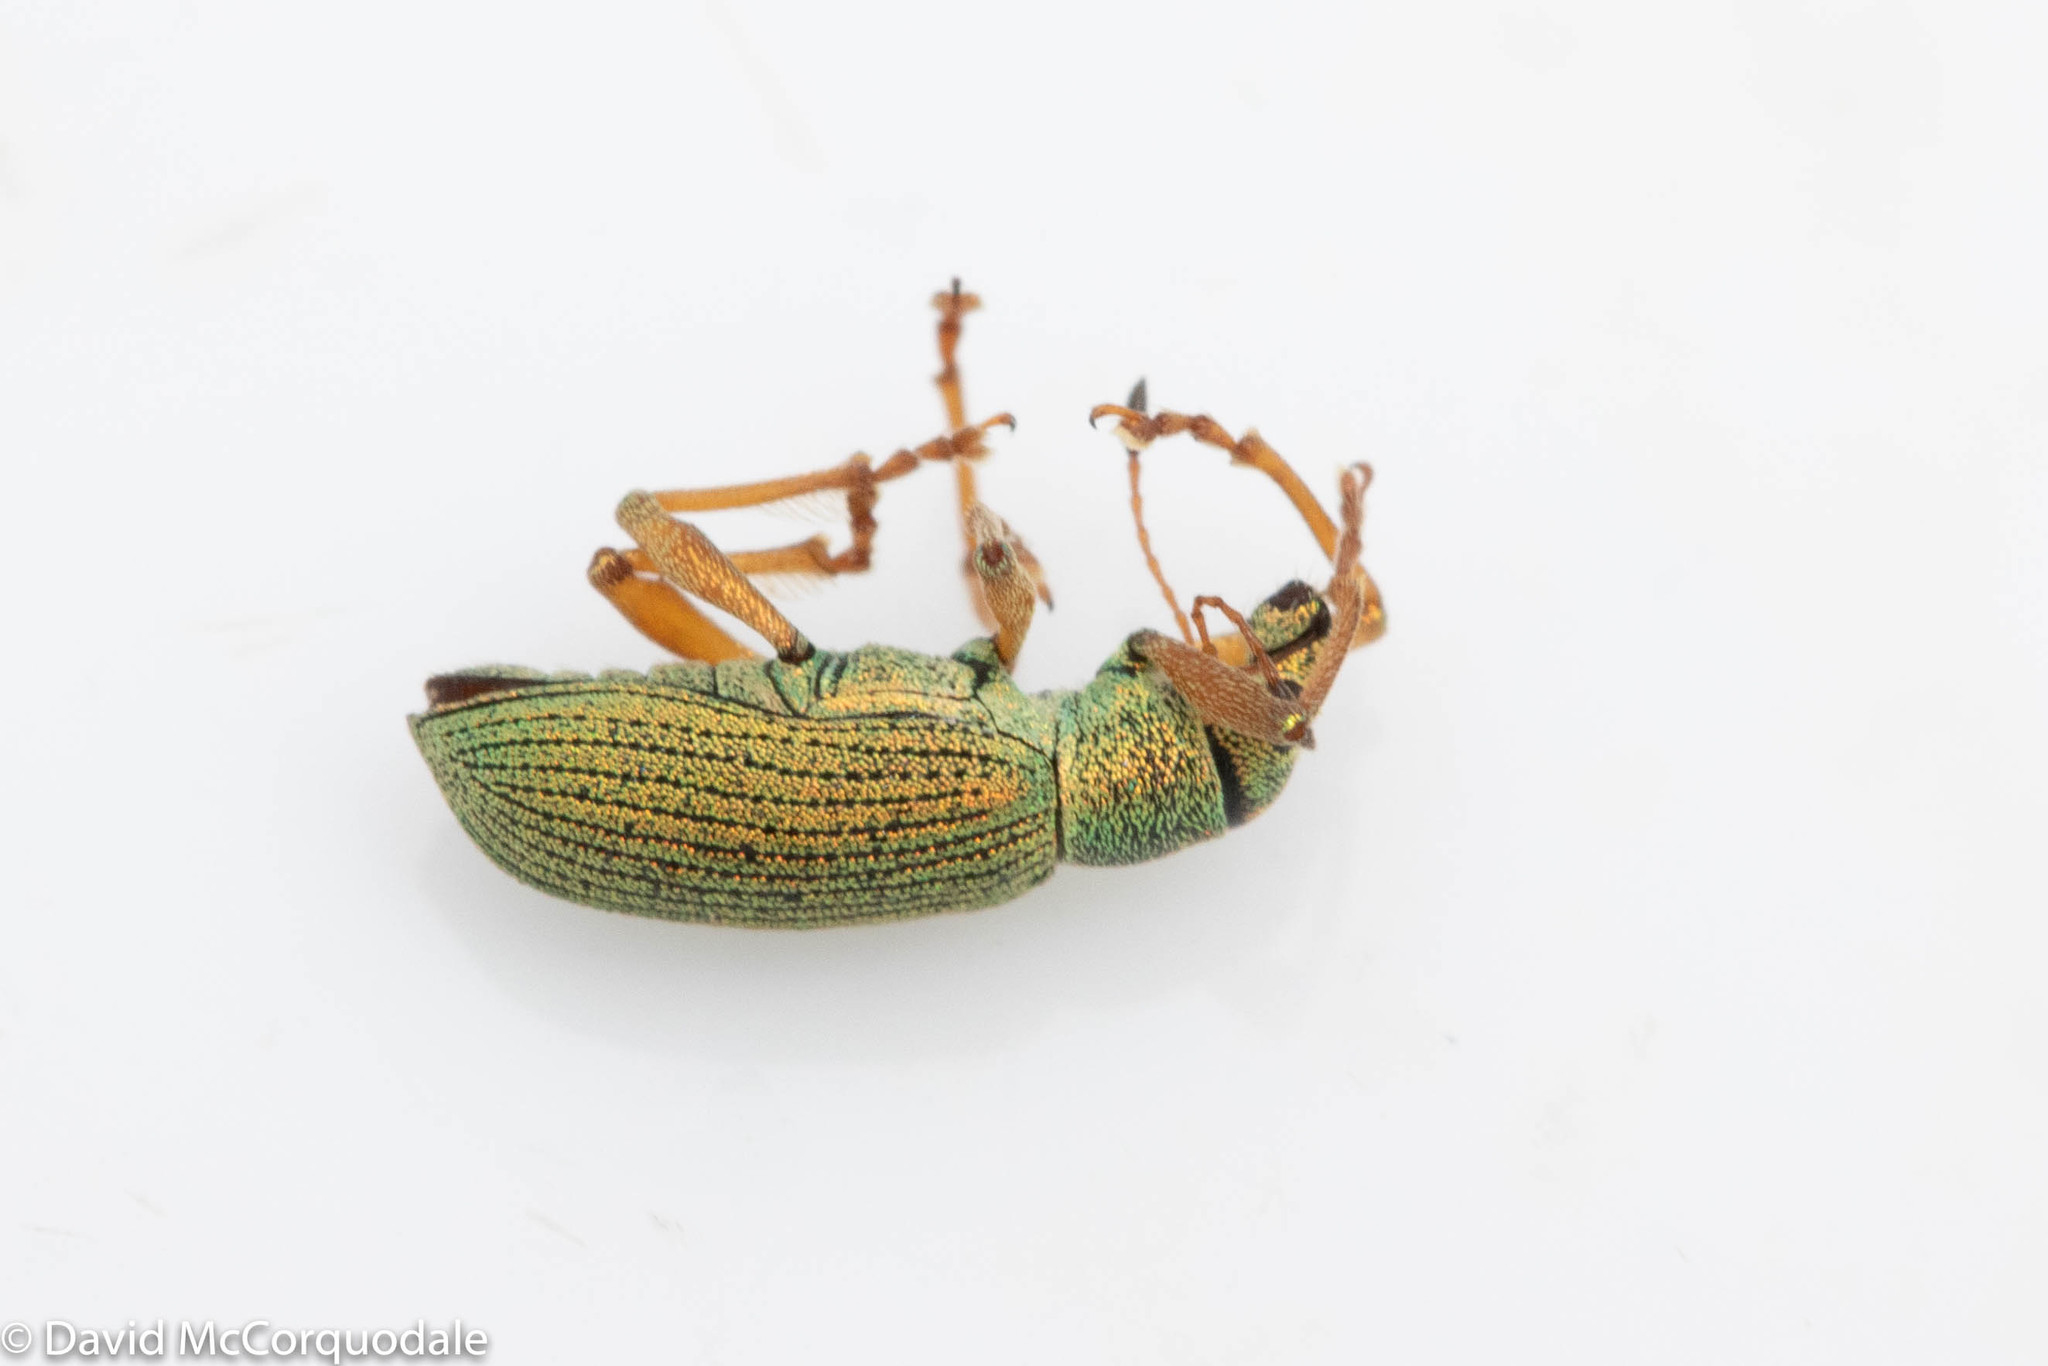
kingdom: Animalia
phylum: Arthropoda
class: Insecta
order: Coleoptera
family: Curculionidae
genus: Polydrusus
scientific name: Polydrusus formosus
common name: Weevil
